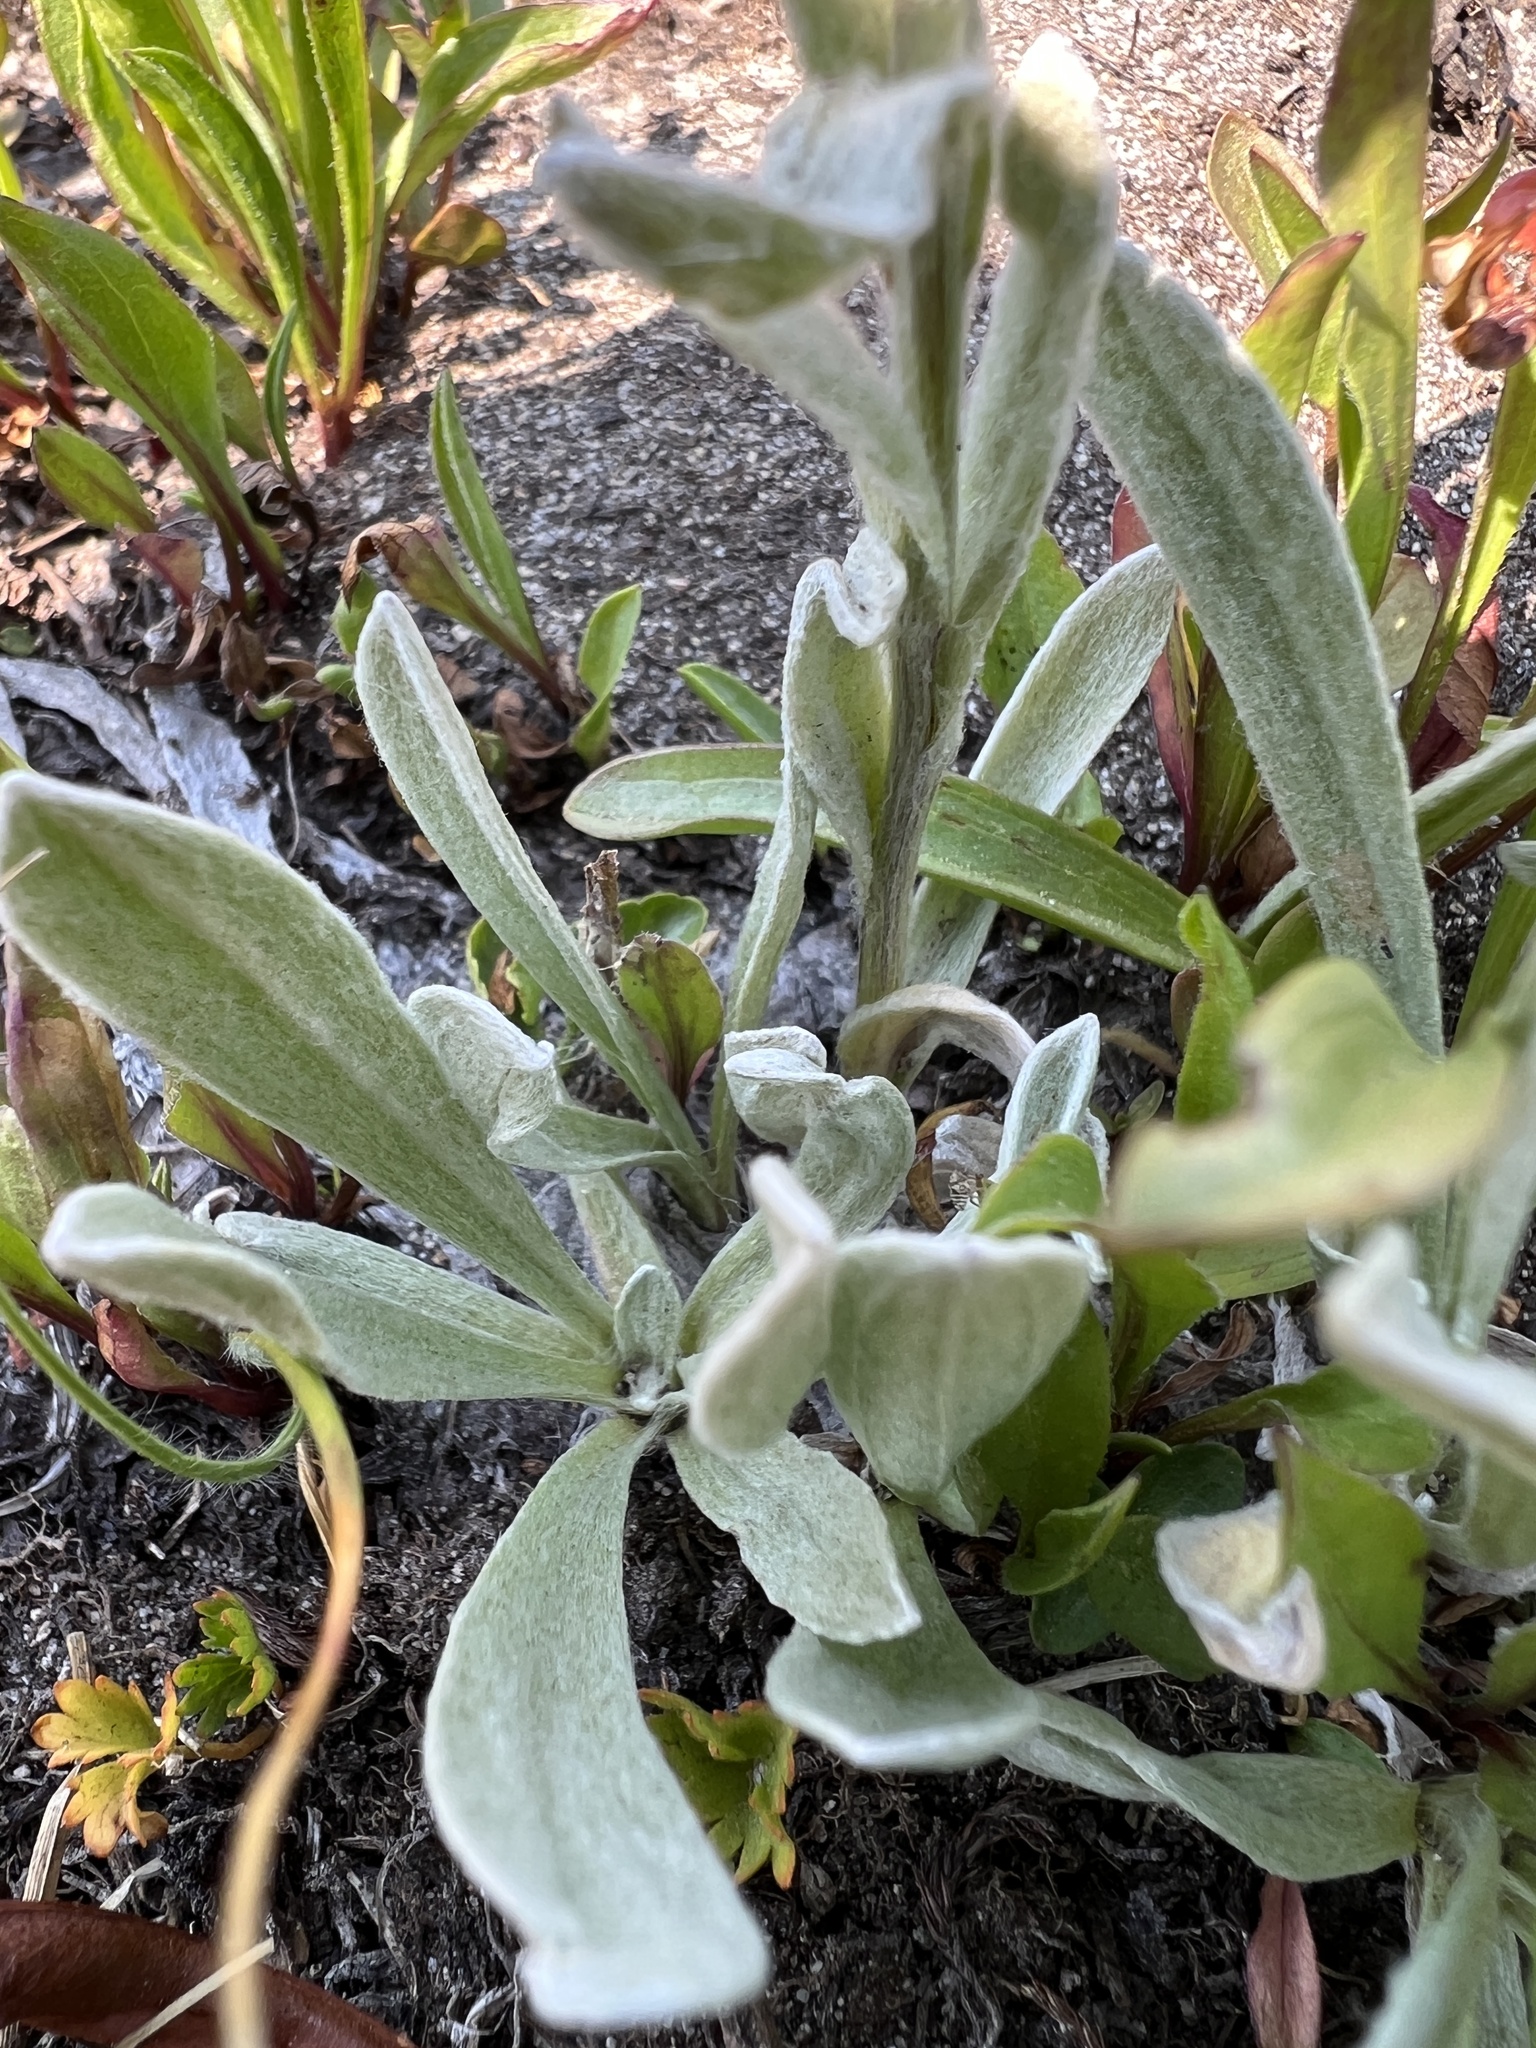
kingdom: Plantae
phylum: Tracheophyta
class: Magnoliopsida
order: Asterales
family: Asteraceae
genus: Antennaria
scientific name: Antennaria lanata
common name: Woolly pussytoes
